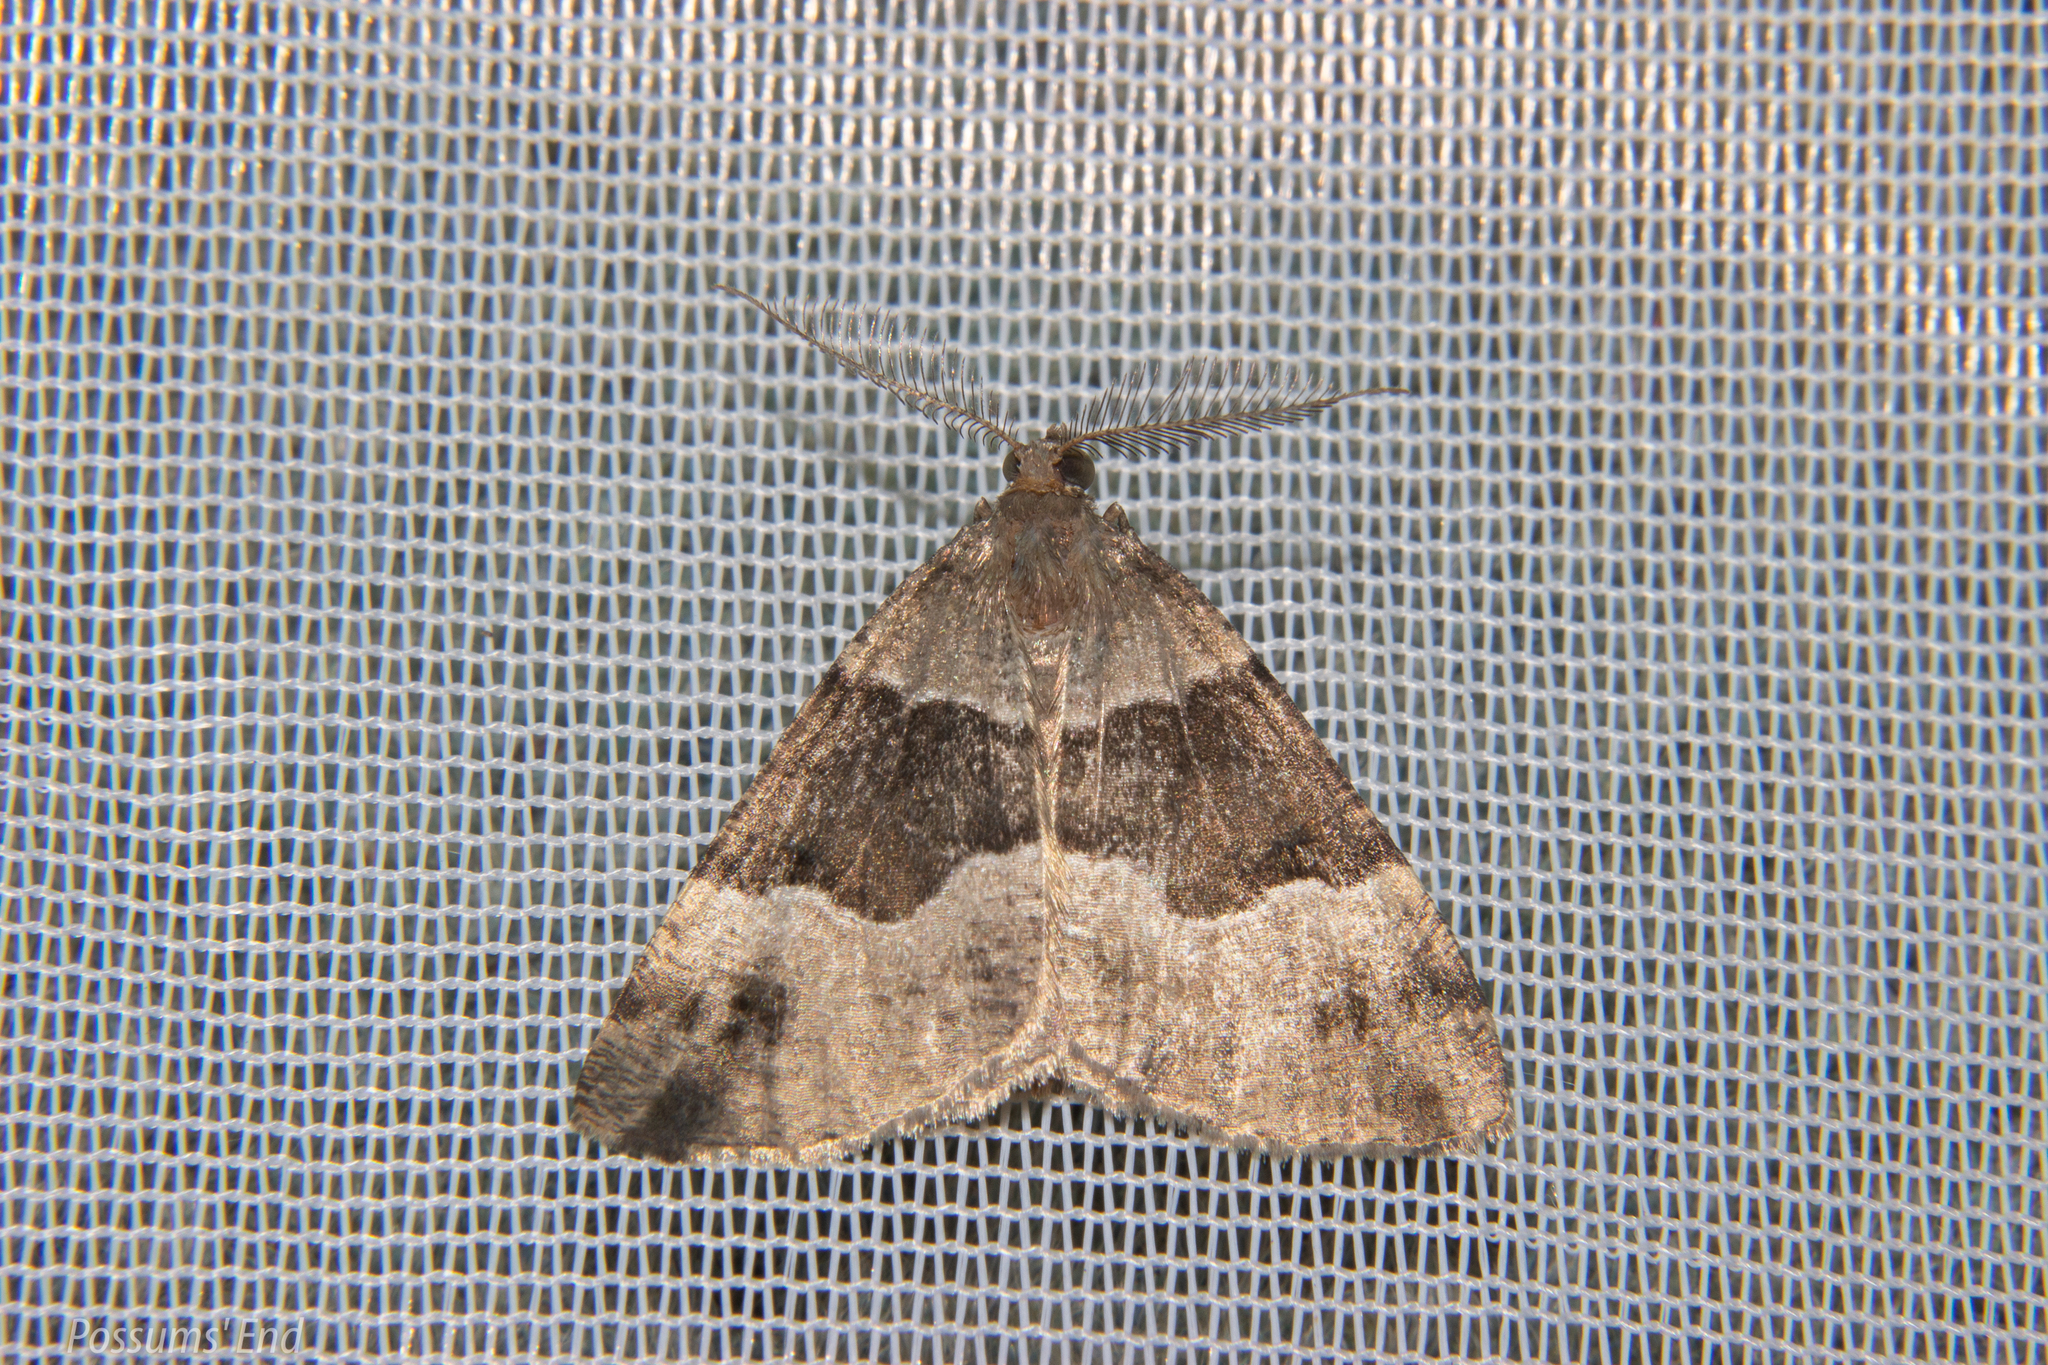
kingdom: Animalia
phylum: Arthropoda
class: Insecta
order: Lepidoptera
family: Geometridae
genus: Pseudocoremia
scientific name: Pseudocoremia
